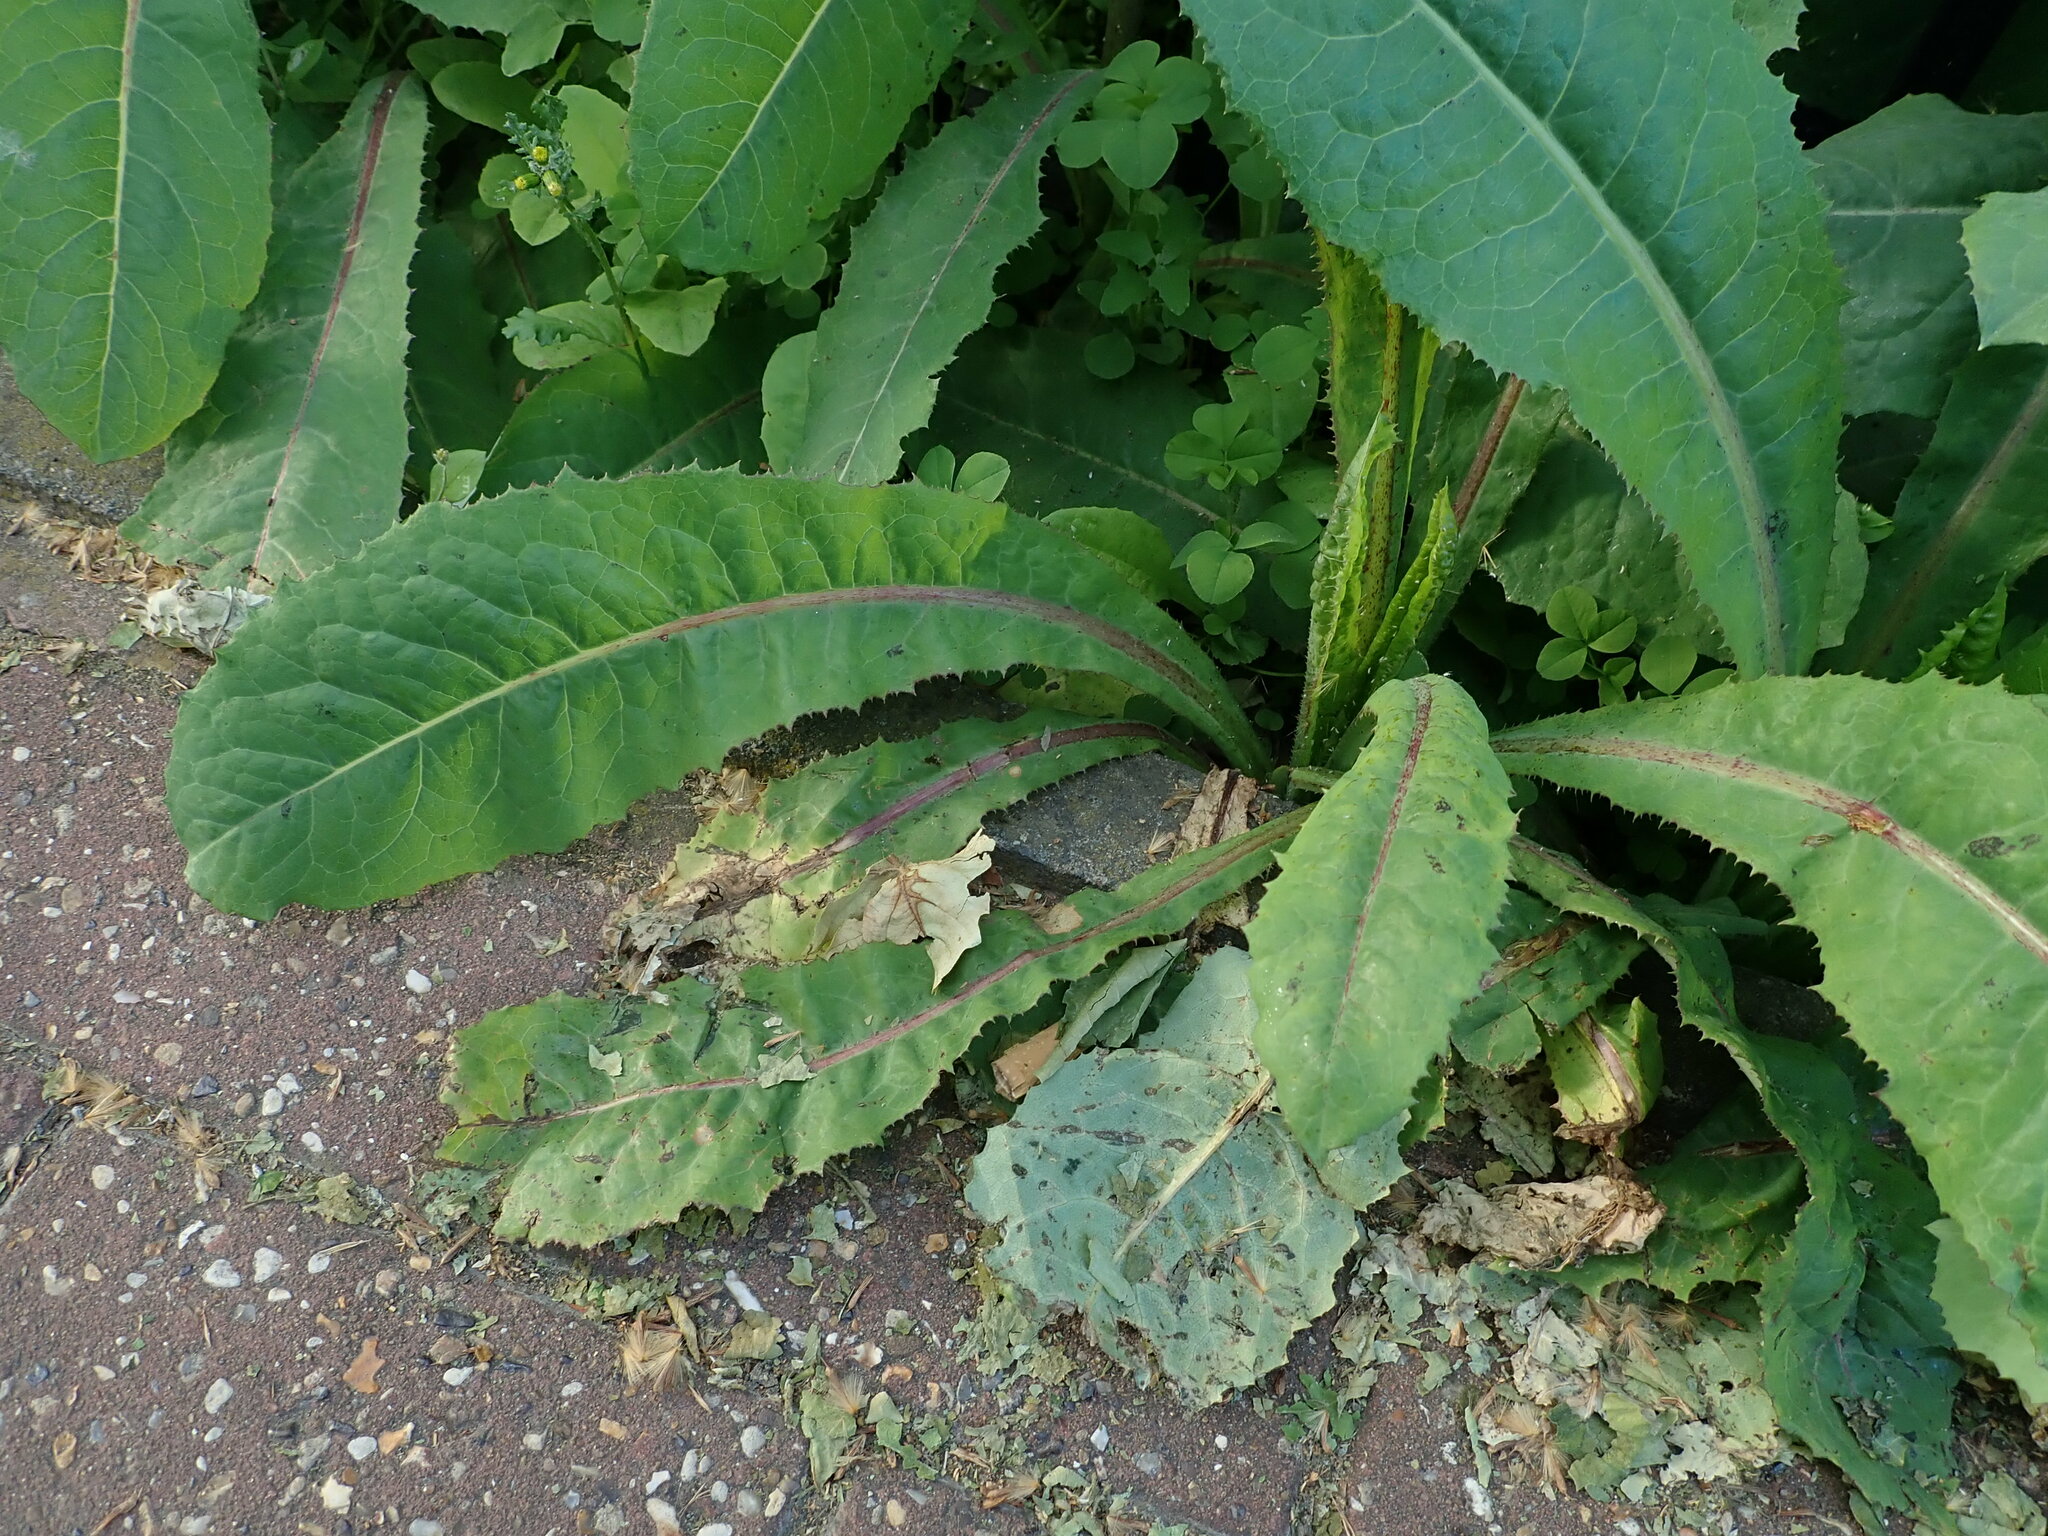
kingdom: Plantae
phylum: Tracheophyta
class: Magnoliopsida
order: Asterales
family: Asteraceae
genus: Lactuca
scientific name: Lactuca virosa
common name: Great lettuce
